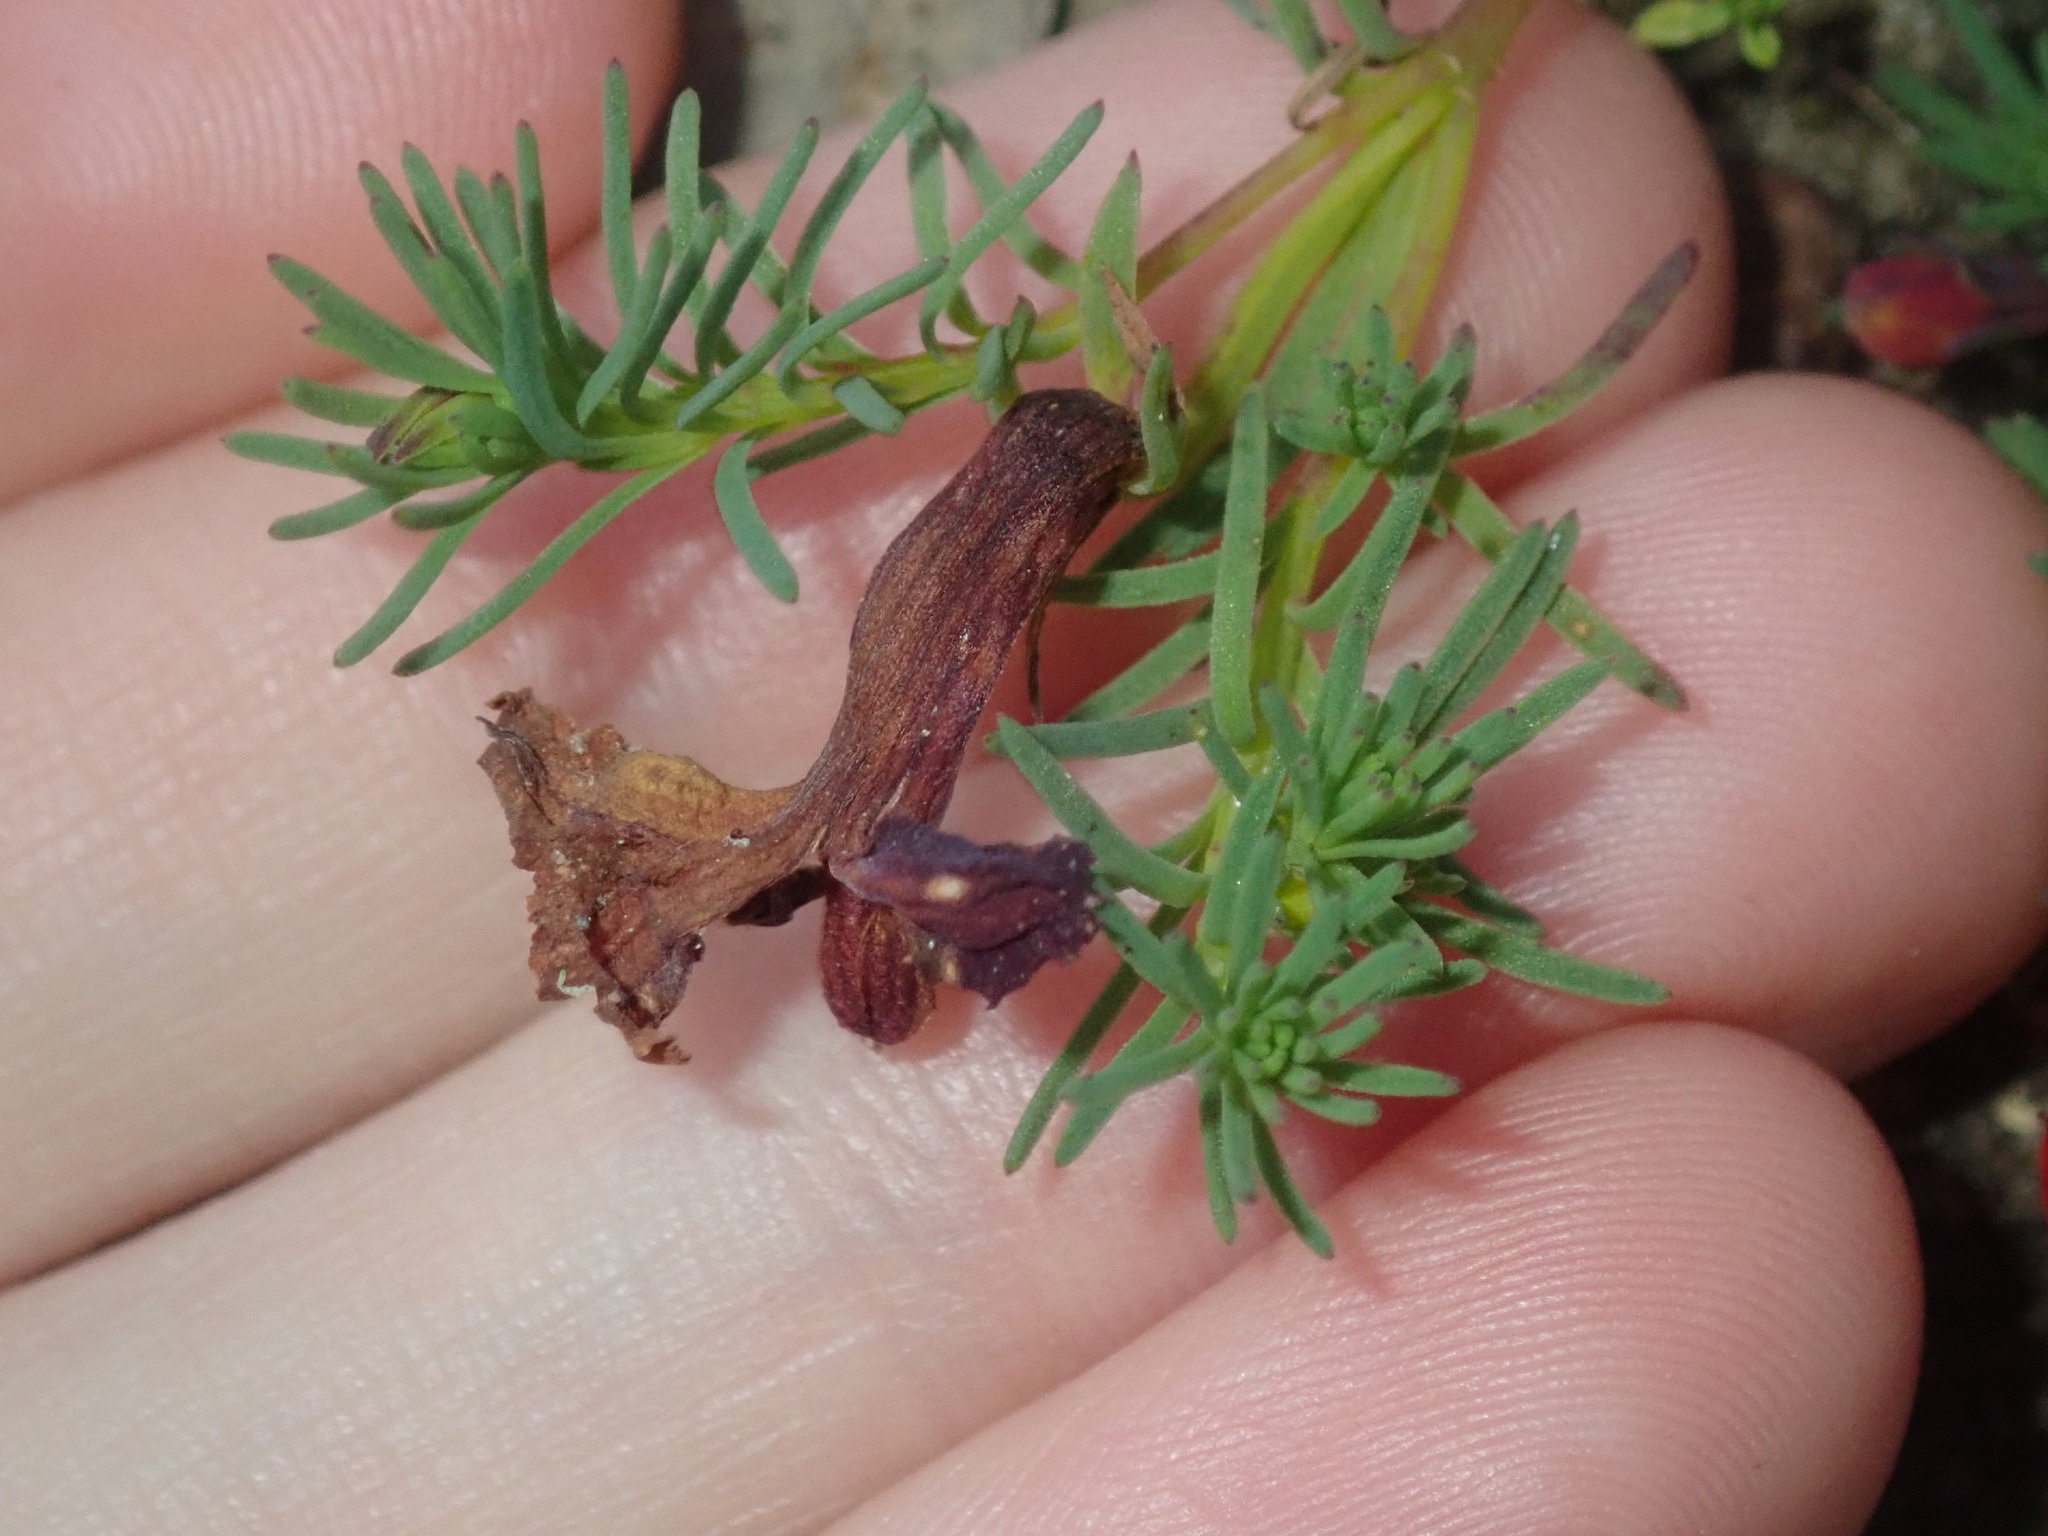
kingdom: Plantae
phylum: Tracheophyta
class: Magnoliopsida
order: Asterales
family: Goodeniaceae
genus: Lechenaultia
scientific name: Lechenaultia formosa
